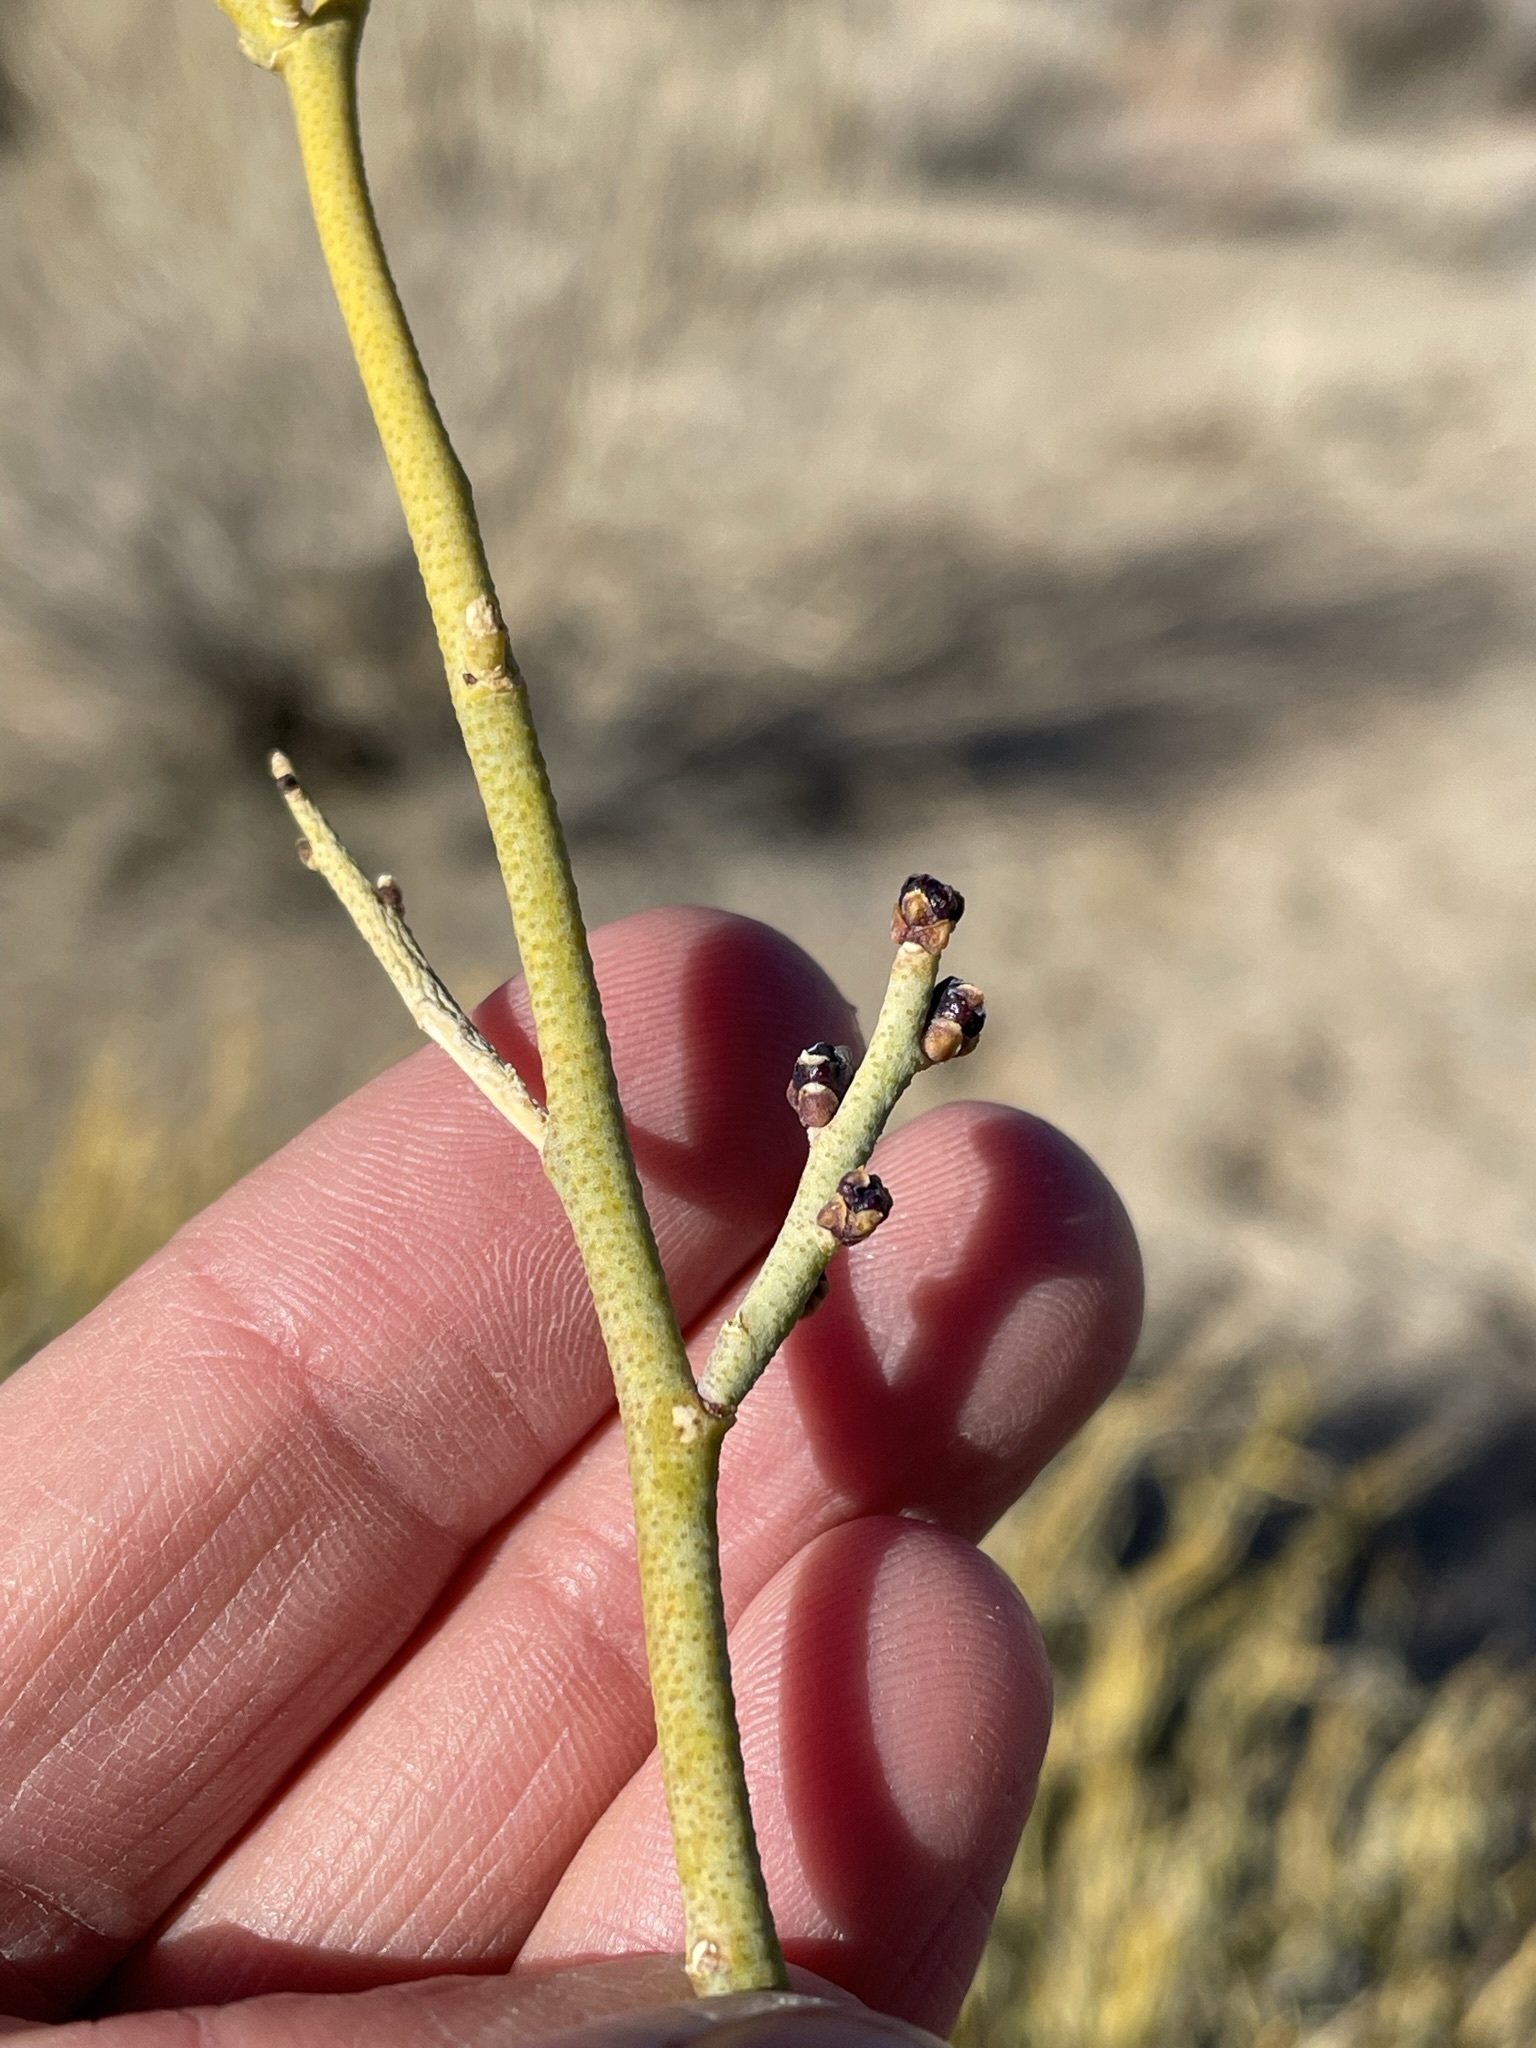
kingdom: Plantae
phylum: Tracheophyta
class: Magnoliopsida
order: Sapindales
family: Rutaceae
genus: Thamnosma
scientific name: Thamnosma montana
